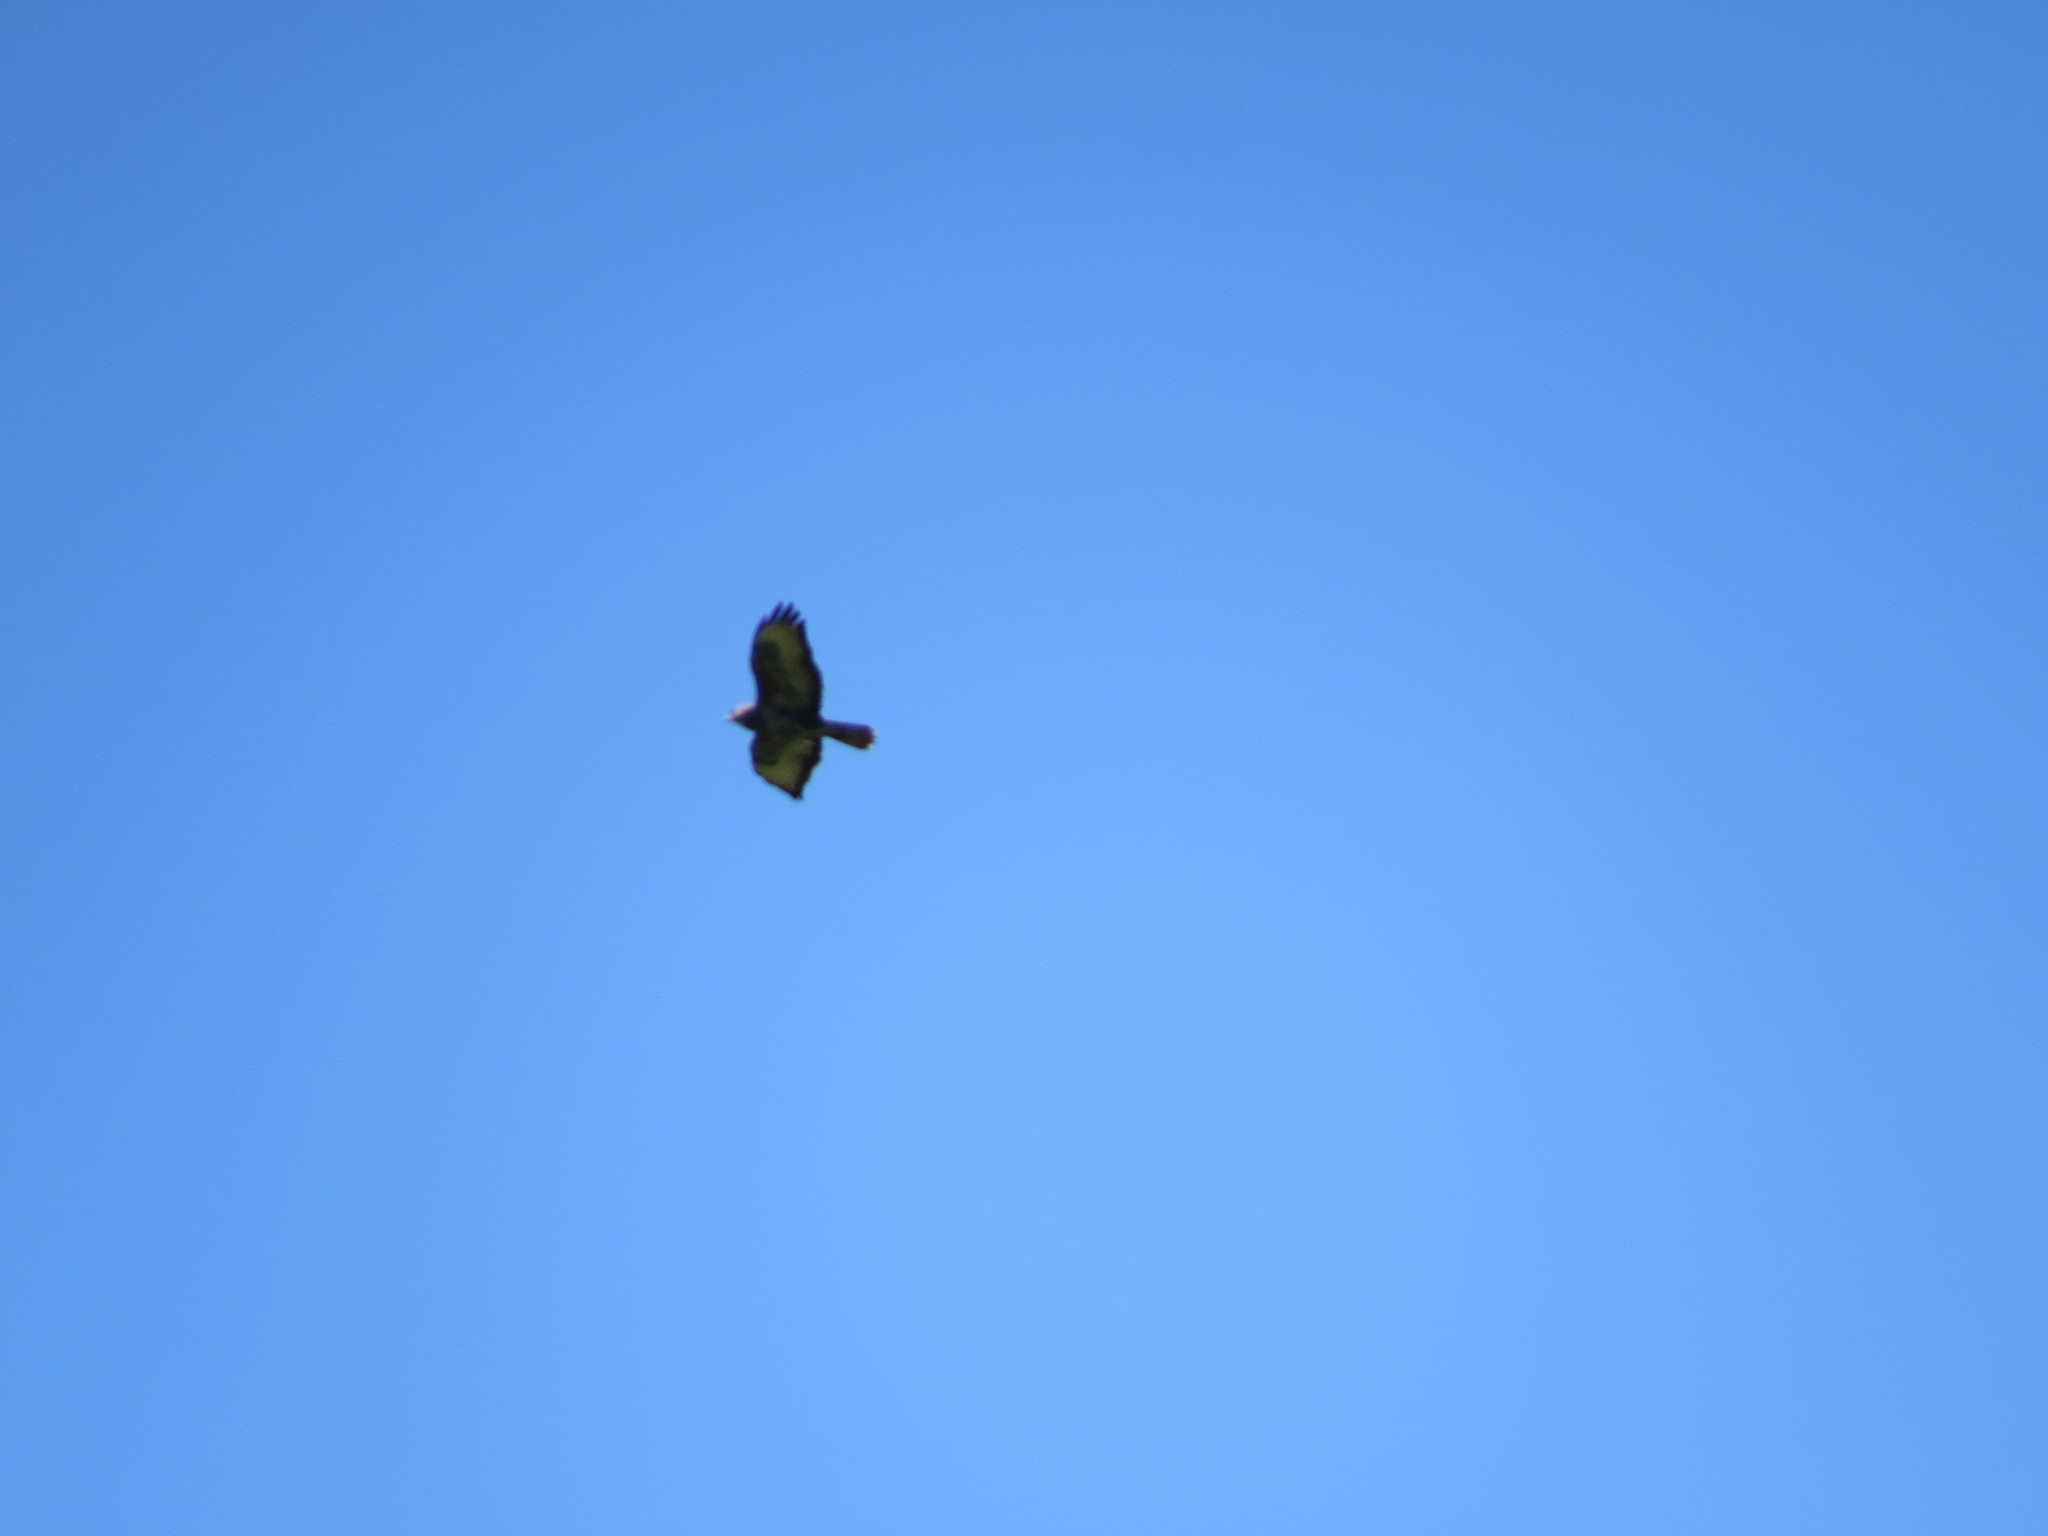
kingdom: Animalia
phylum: Chordata
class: Aves
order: Accipitriformes
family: Accipitridae
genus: Buteo
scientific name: Buteo buteo
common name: Common buzzard
